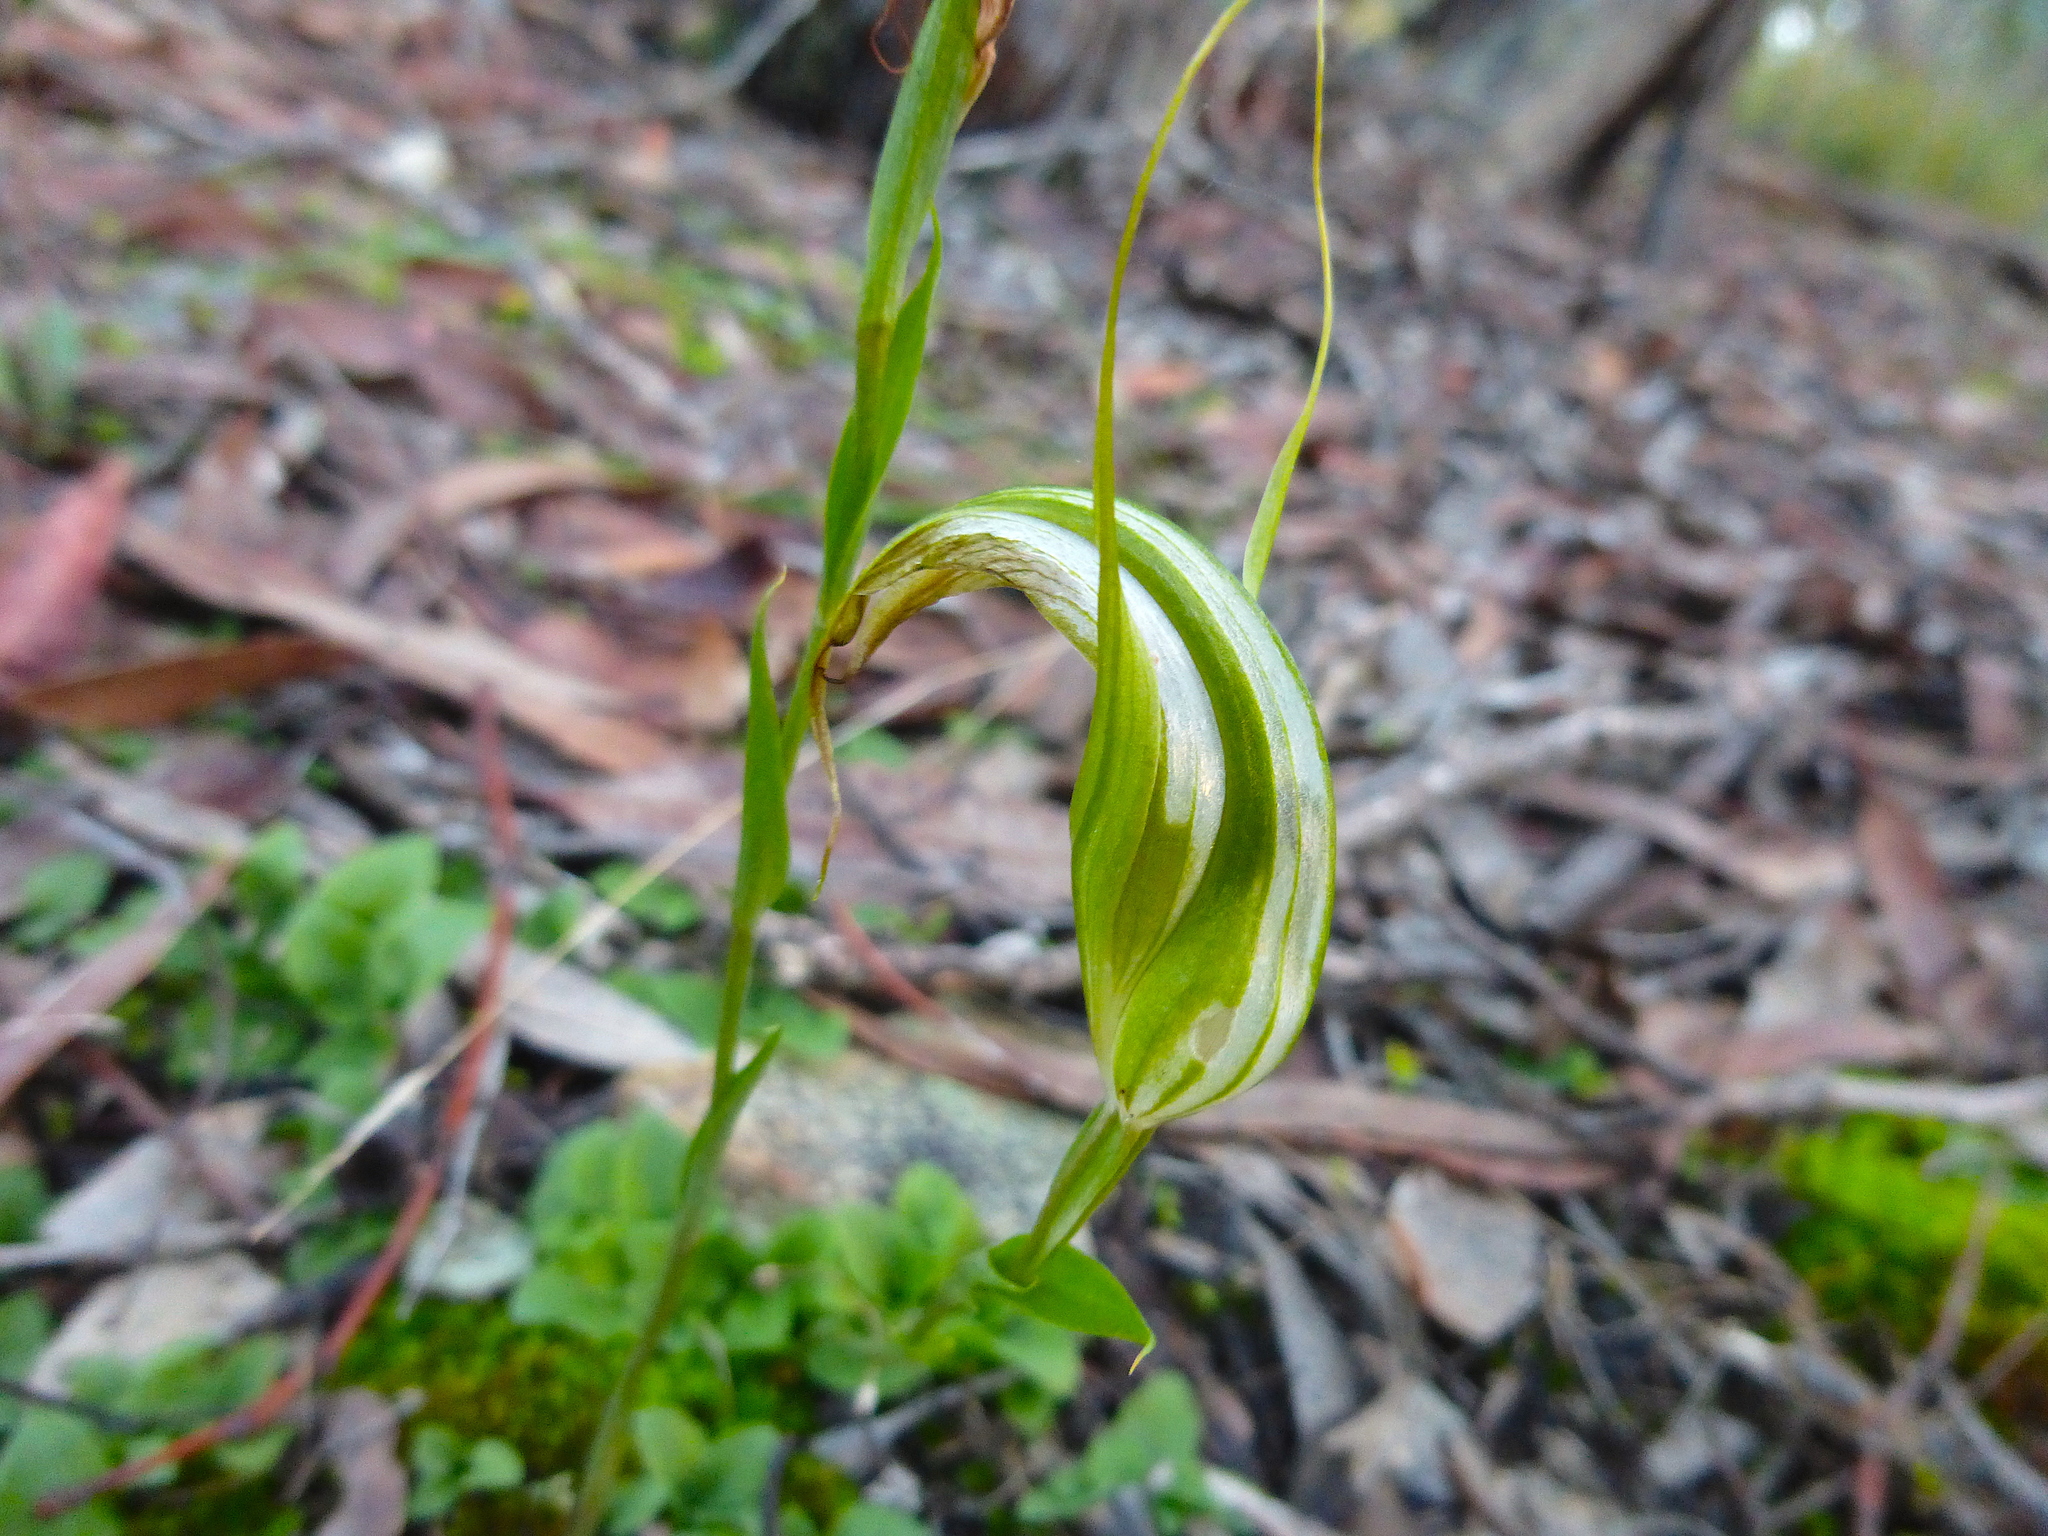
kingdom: Plantae
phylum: Tracheophyta
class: Liliopsida
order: Asparagales
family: Orchidaceae
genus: Pterostylis
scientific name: Pterostylis ampliata
